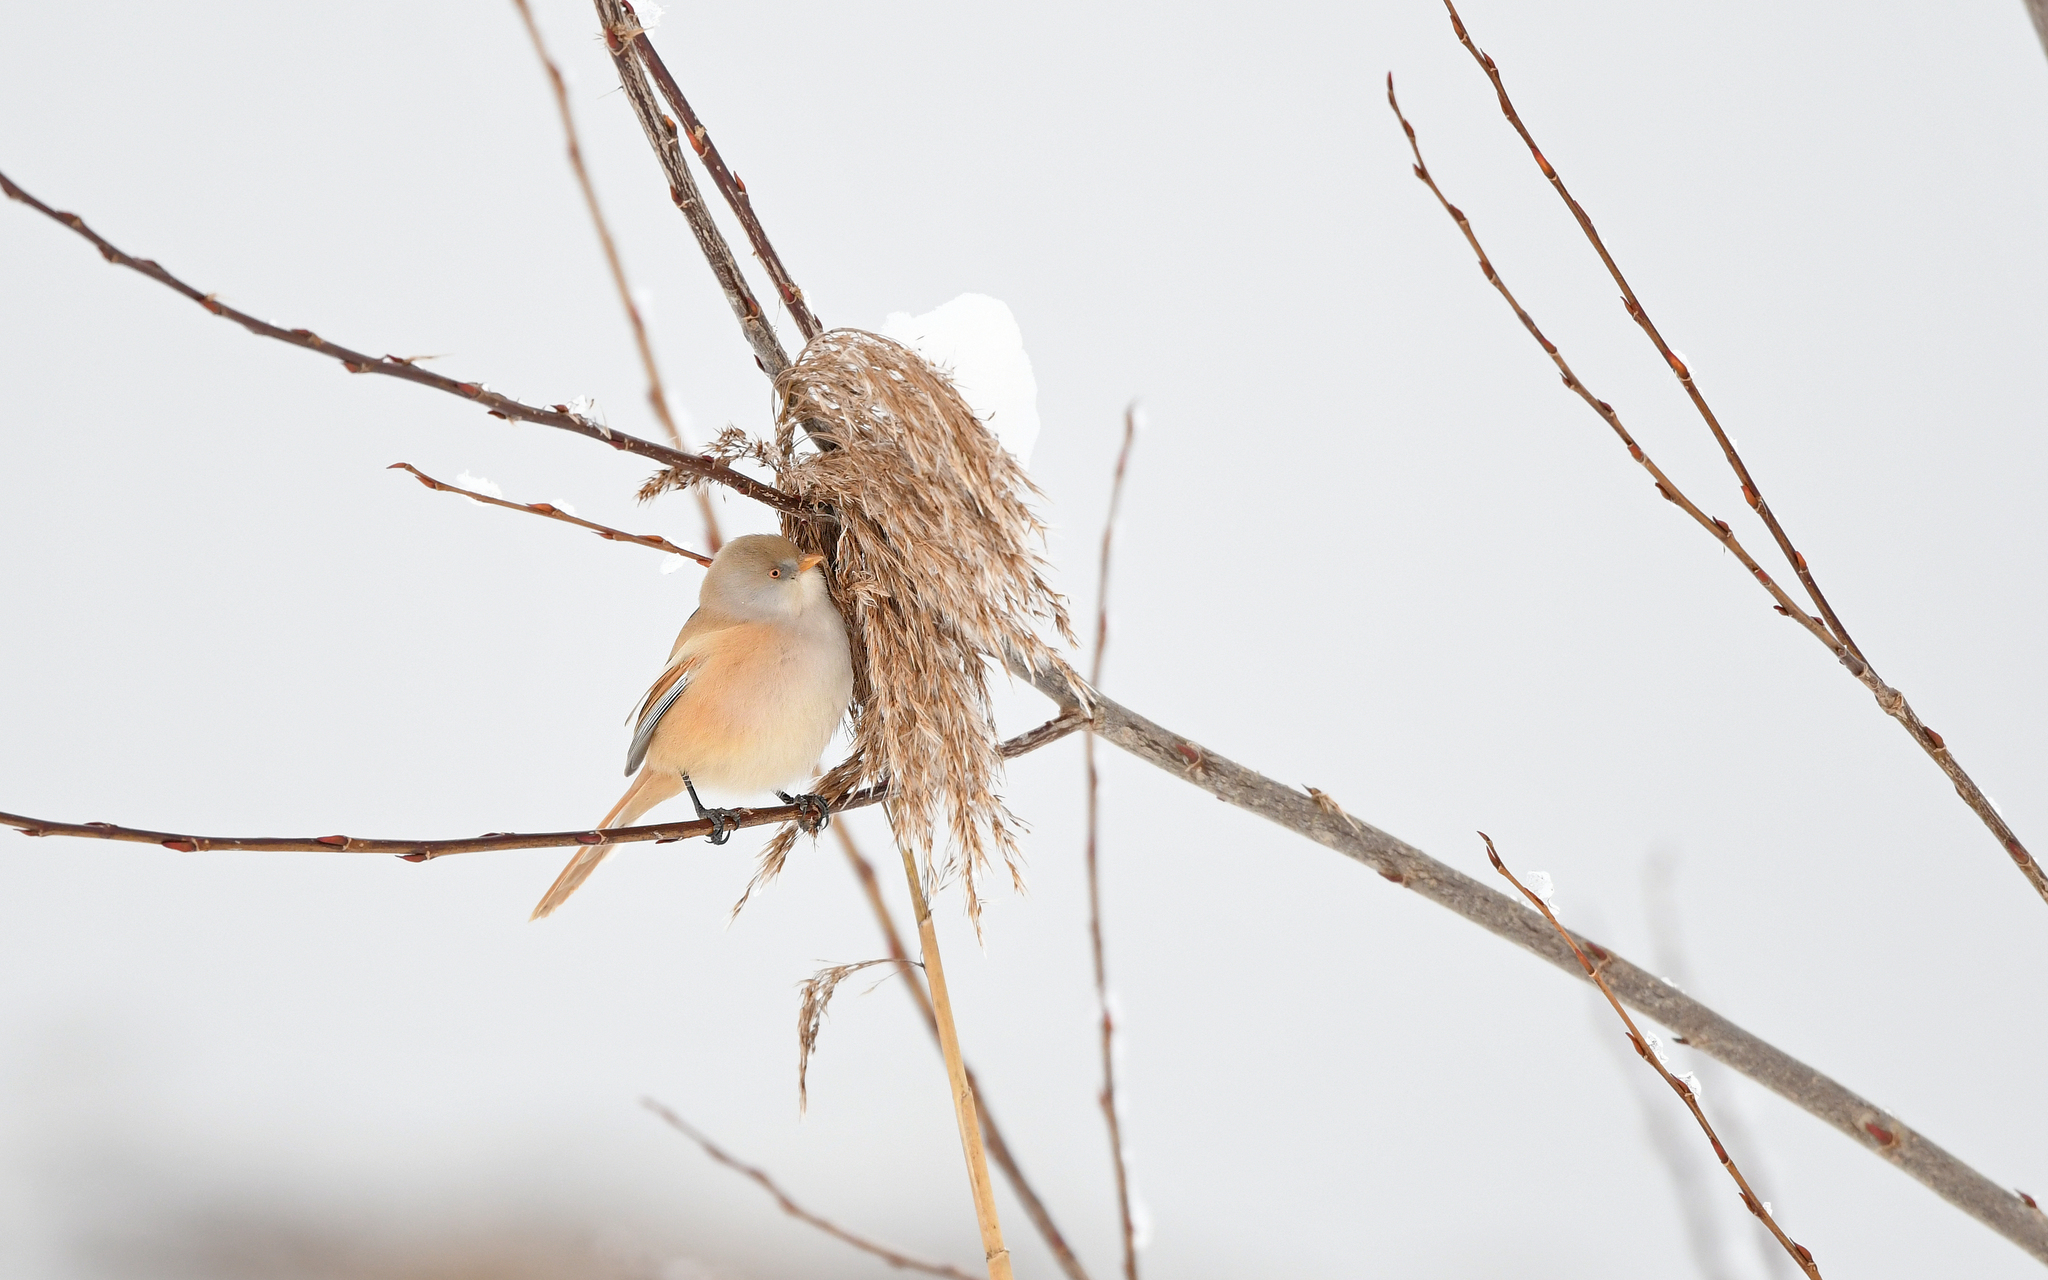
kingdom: Animalia
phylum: Chordata
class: Aves
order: Passeriformes
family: Panuridae
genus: Panurus
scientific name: Panurus biarmicus
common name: Bearded reedling
